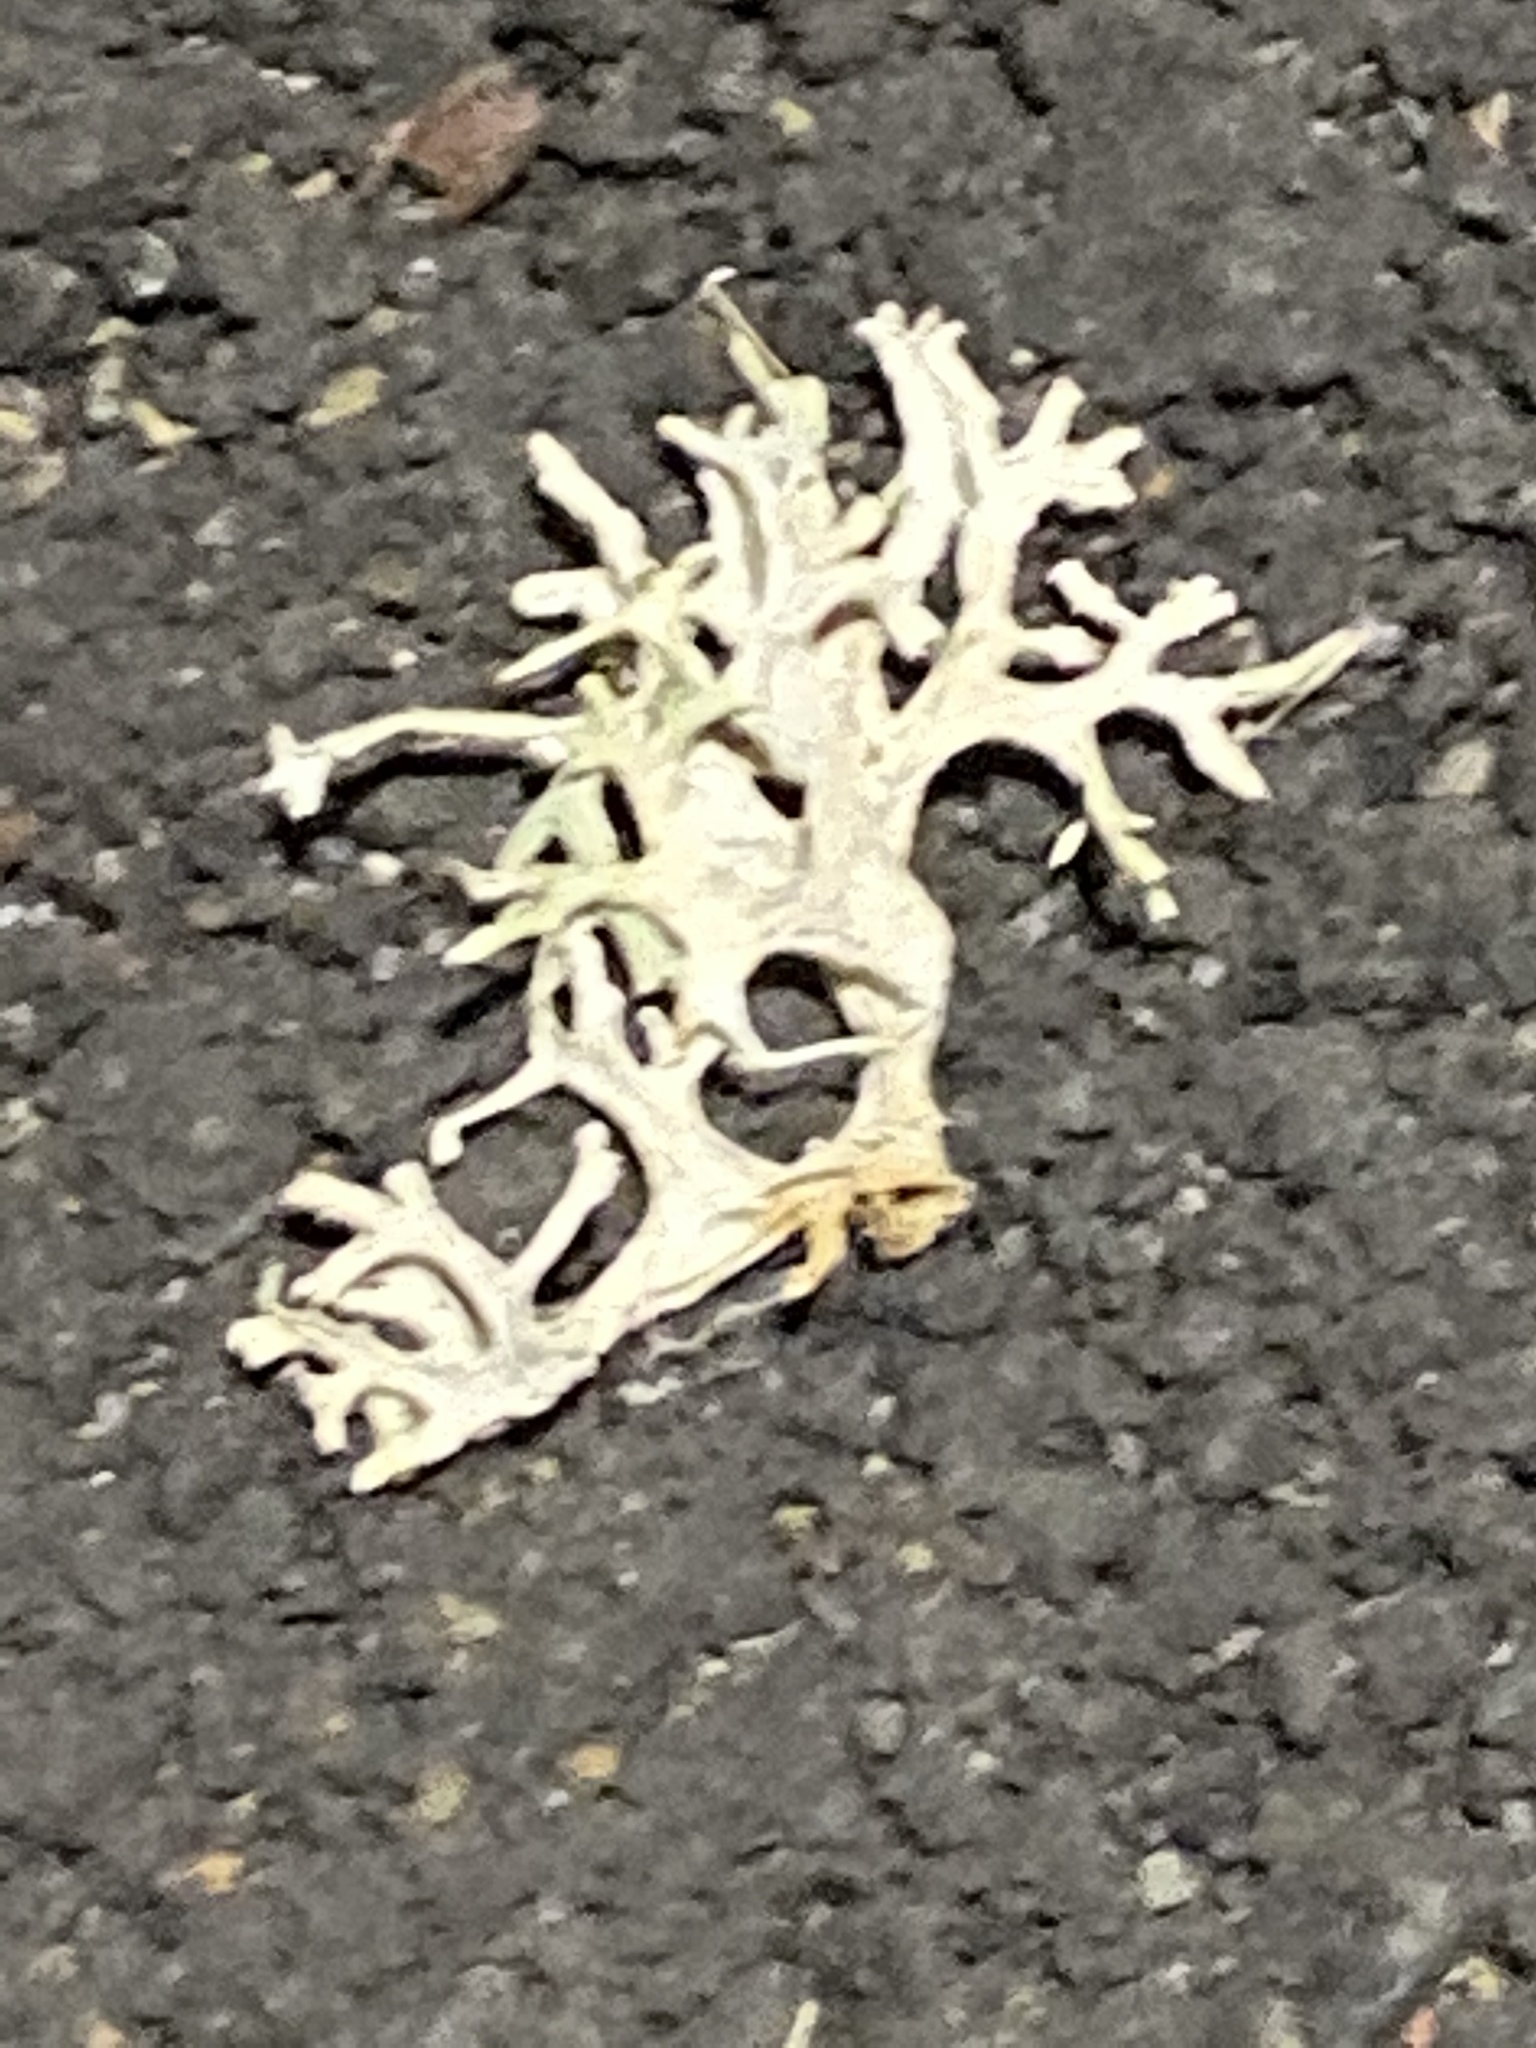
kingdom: Fungi
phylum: Ascomycota
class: Lecanoromycetes
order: Lecanorales
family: Parmeliaceae
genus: Evernia
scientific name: Evernia prunastri
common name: Oak moss
